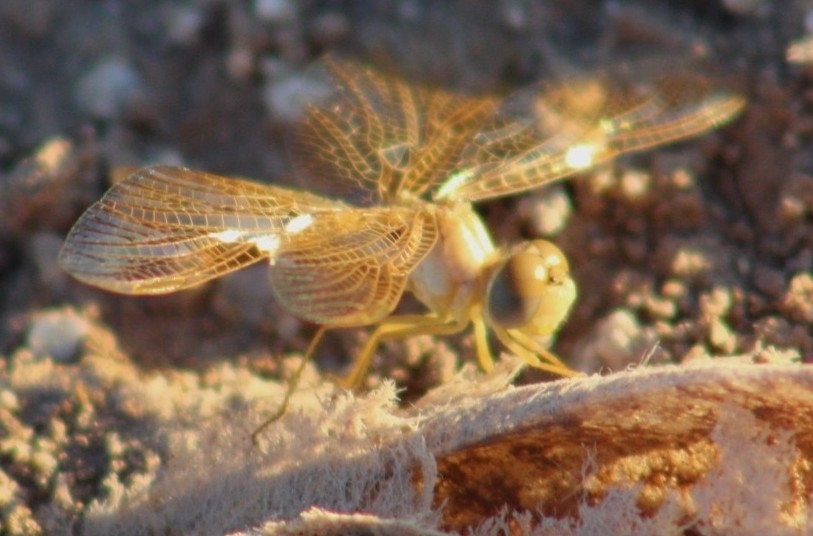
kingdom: Animalia
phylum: Arthropoda
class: Insecta
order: Odonata
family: Libellulidae
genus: Perithemis
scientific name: Perithemis intensa
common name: Mexican amberwing
